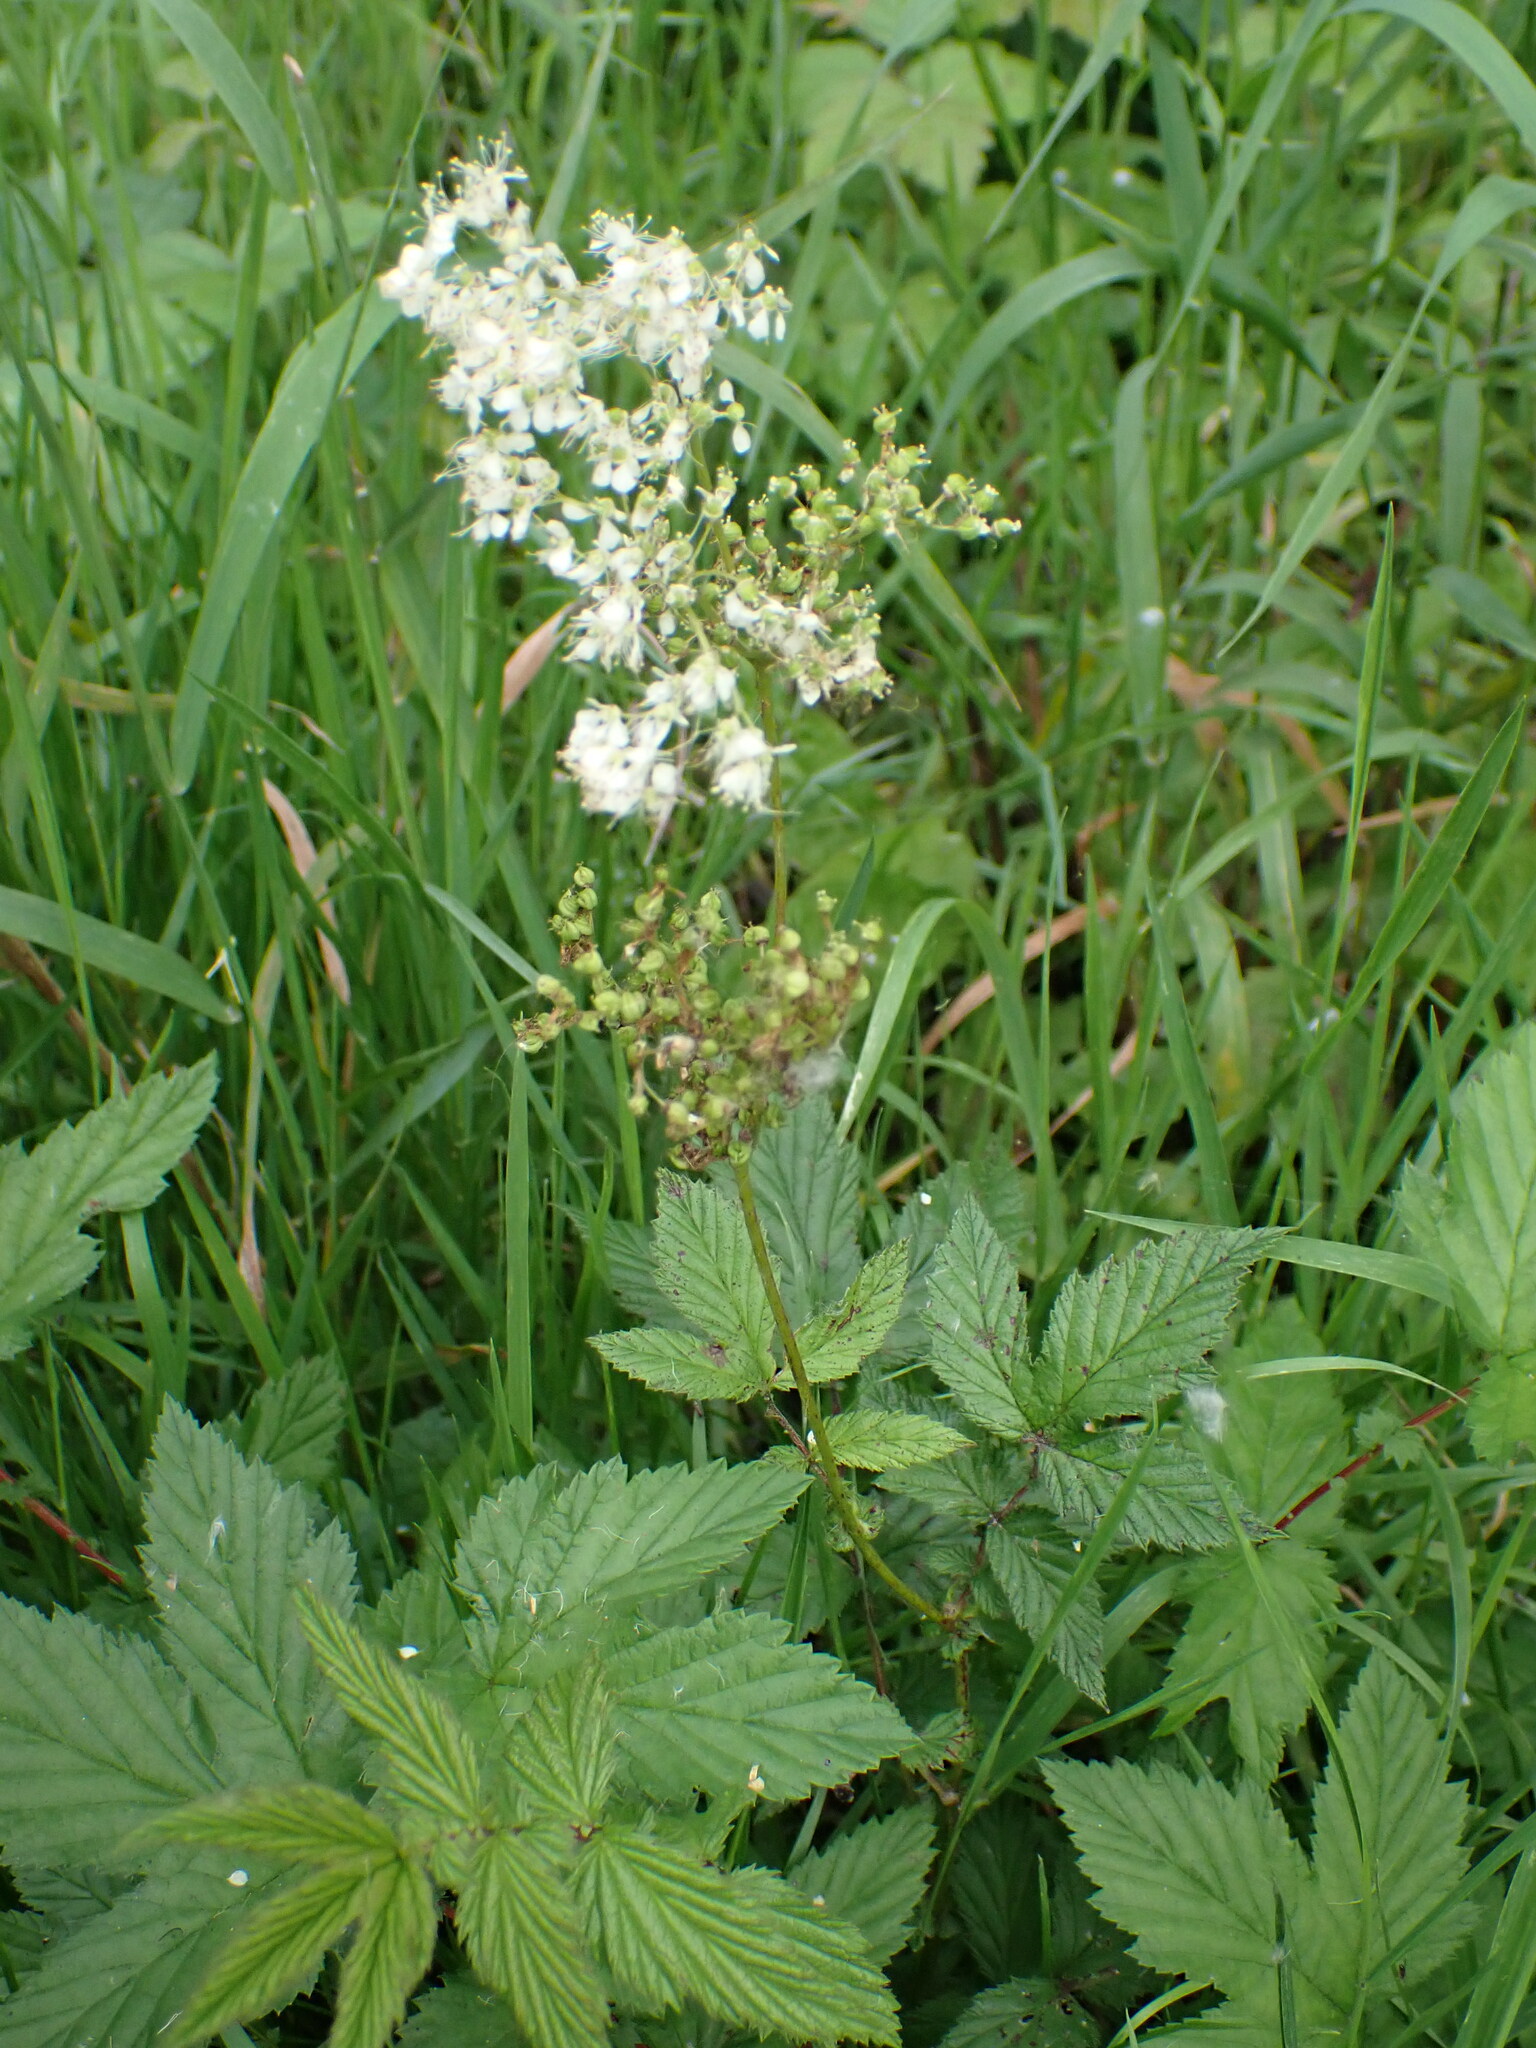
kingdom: Plantae
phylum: Tracheophyta
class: Magnoliopsida
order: Rosales
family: Rosaceae
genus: Filipendula
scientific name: Filipendula ulmaria
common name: Meadowsweet
